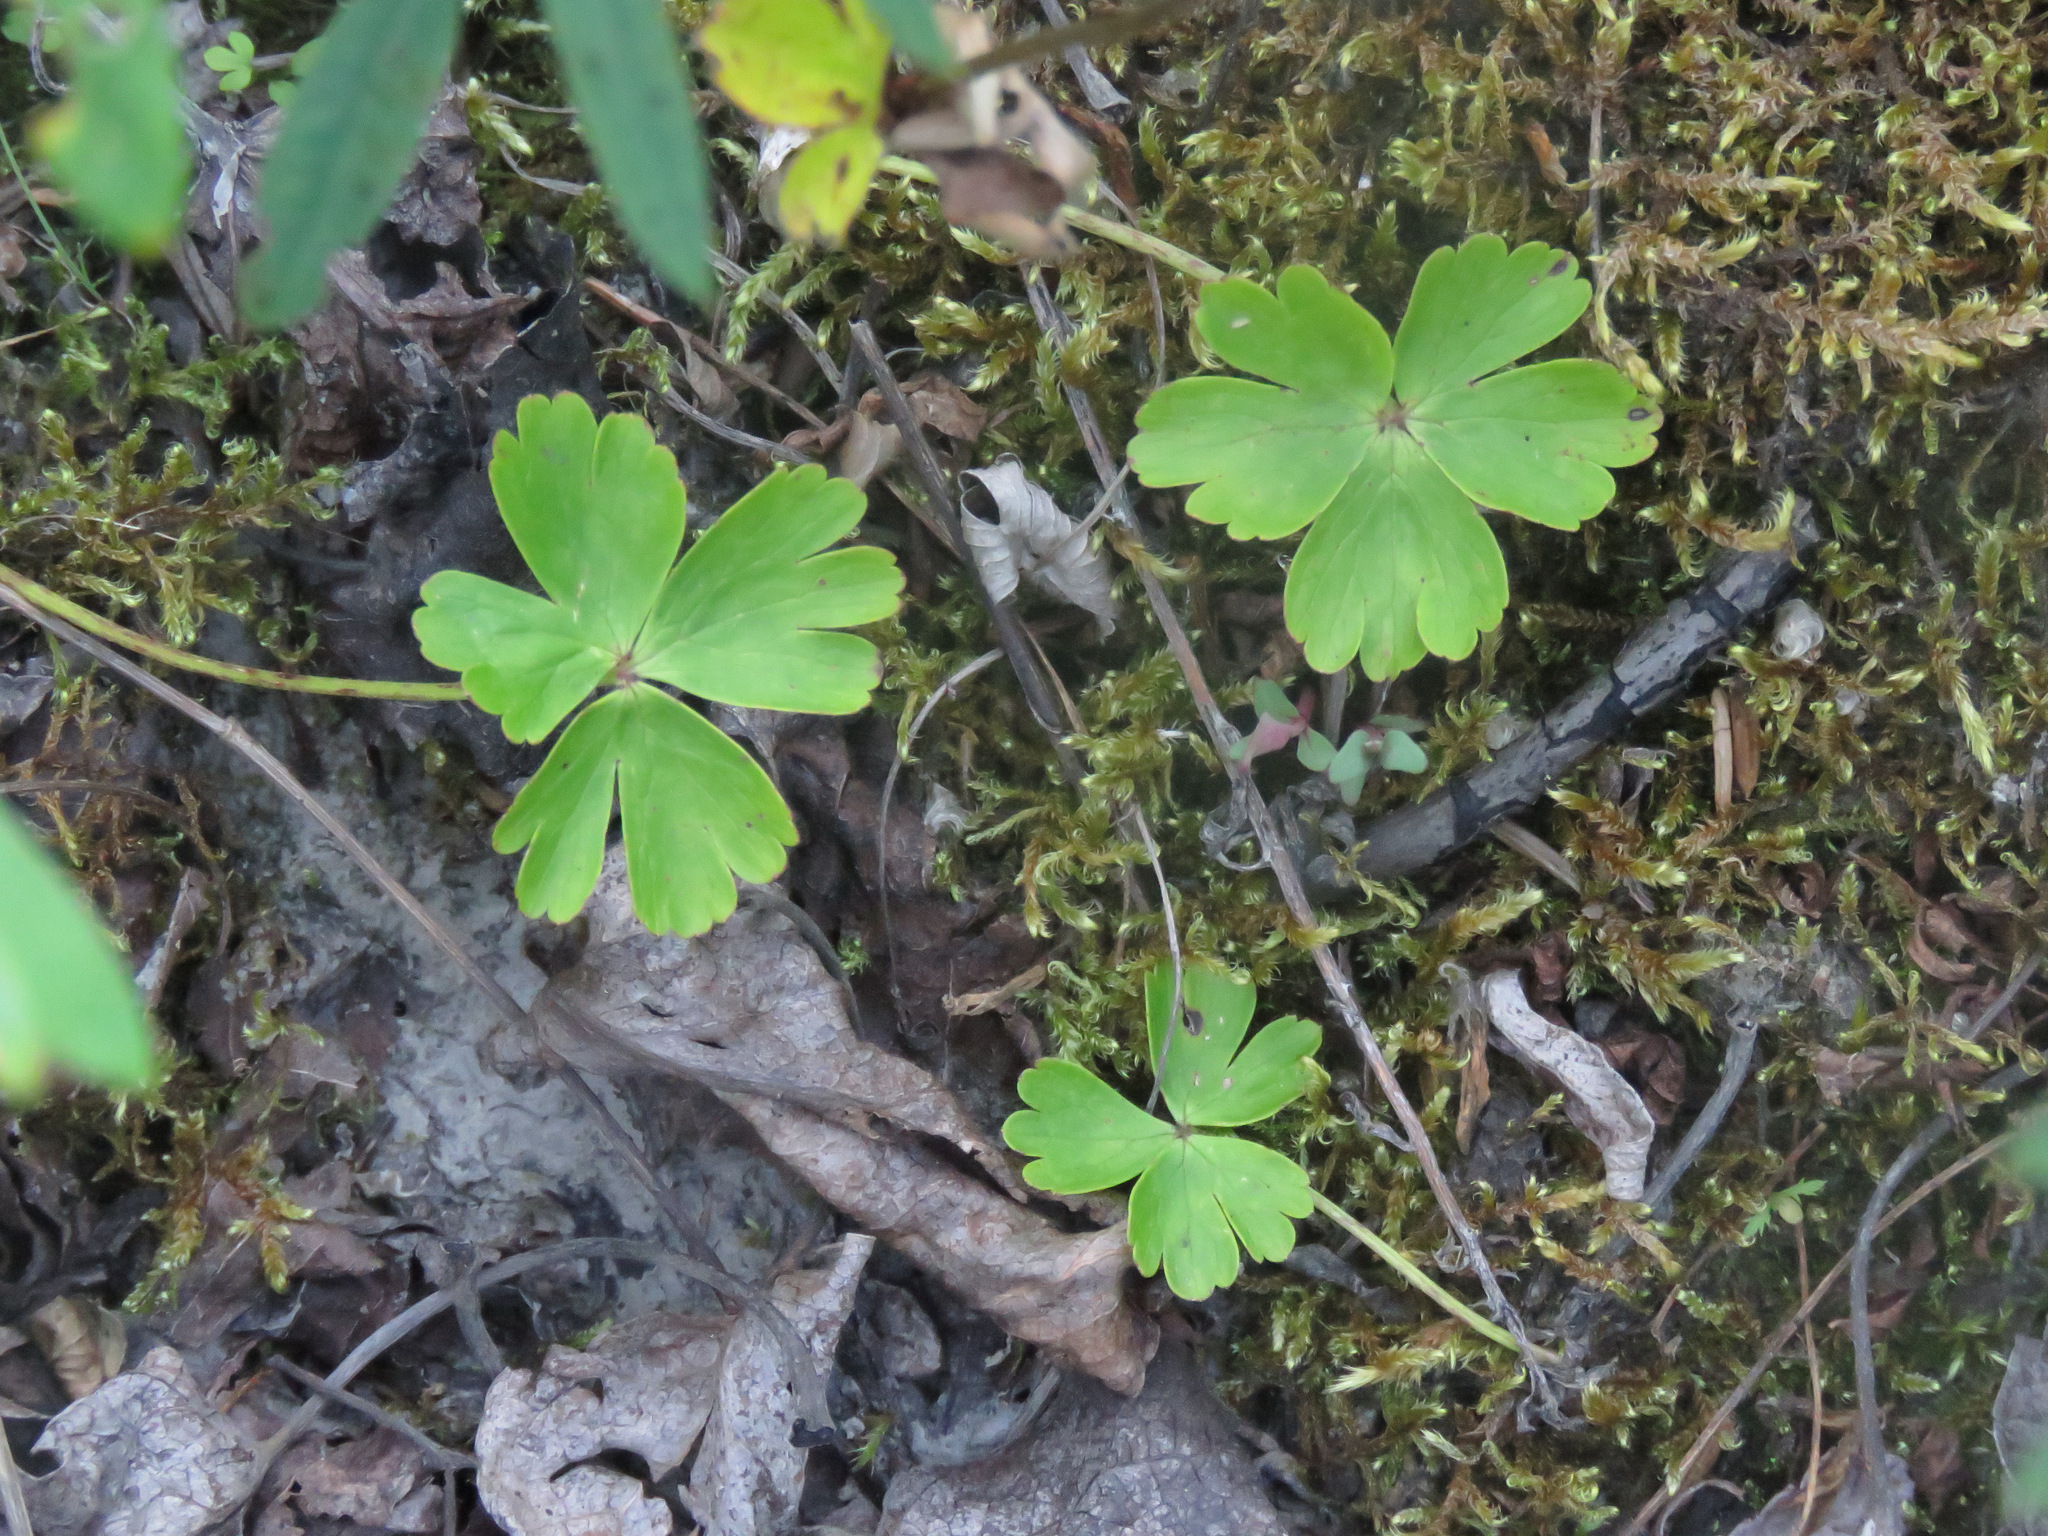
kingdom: Plantae
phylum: Tracheophyta
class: Magnoliopsida
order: Ranunculales
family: Ranunculaceae
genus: Anemone
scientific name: Anemone parviflora
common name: Northern anemone
